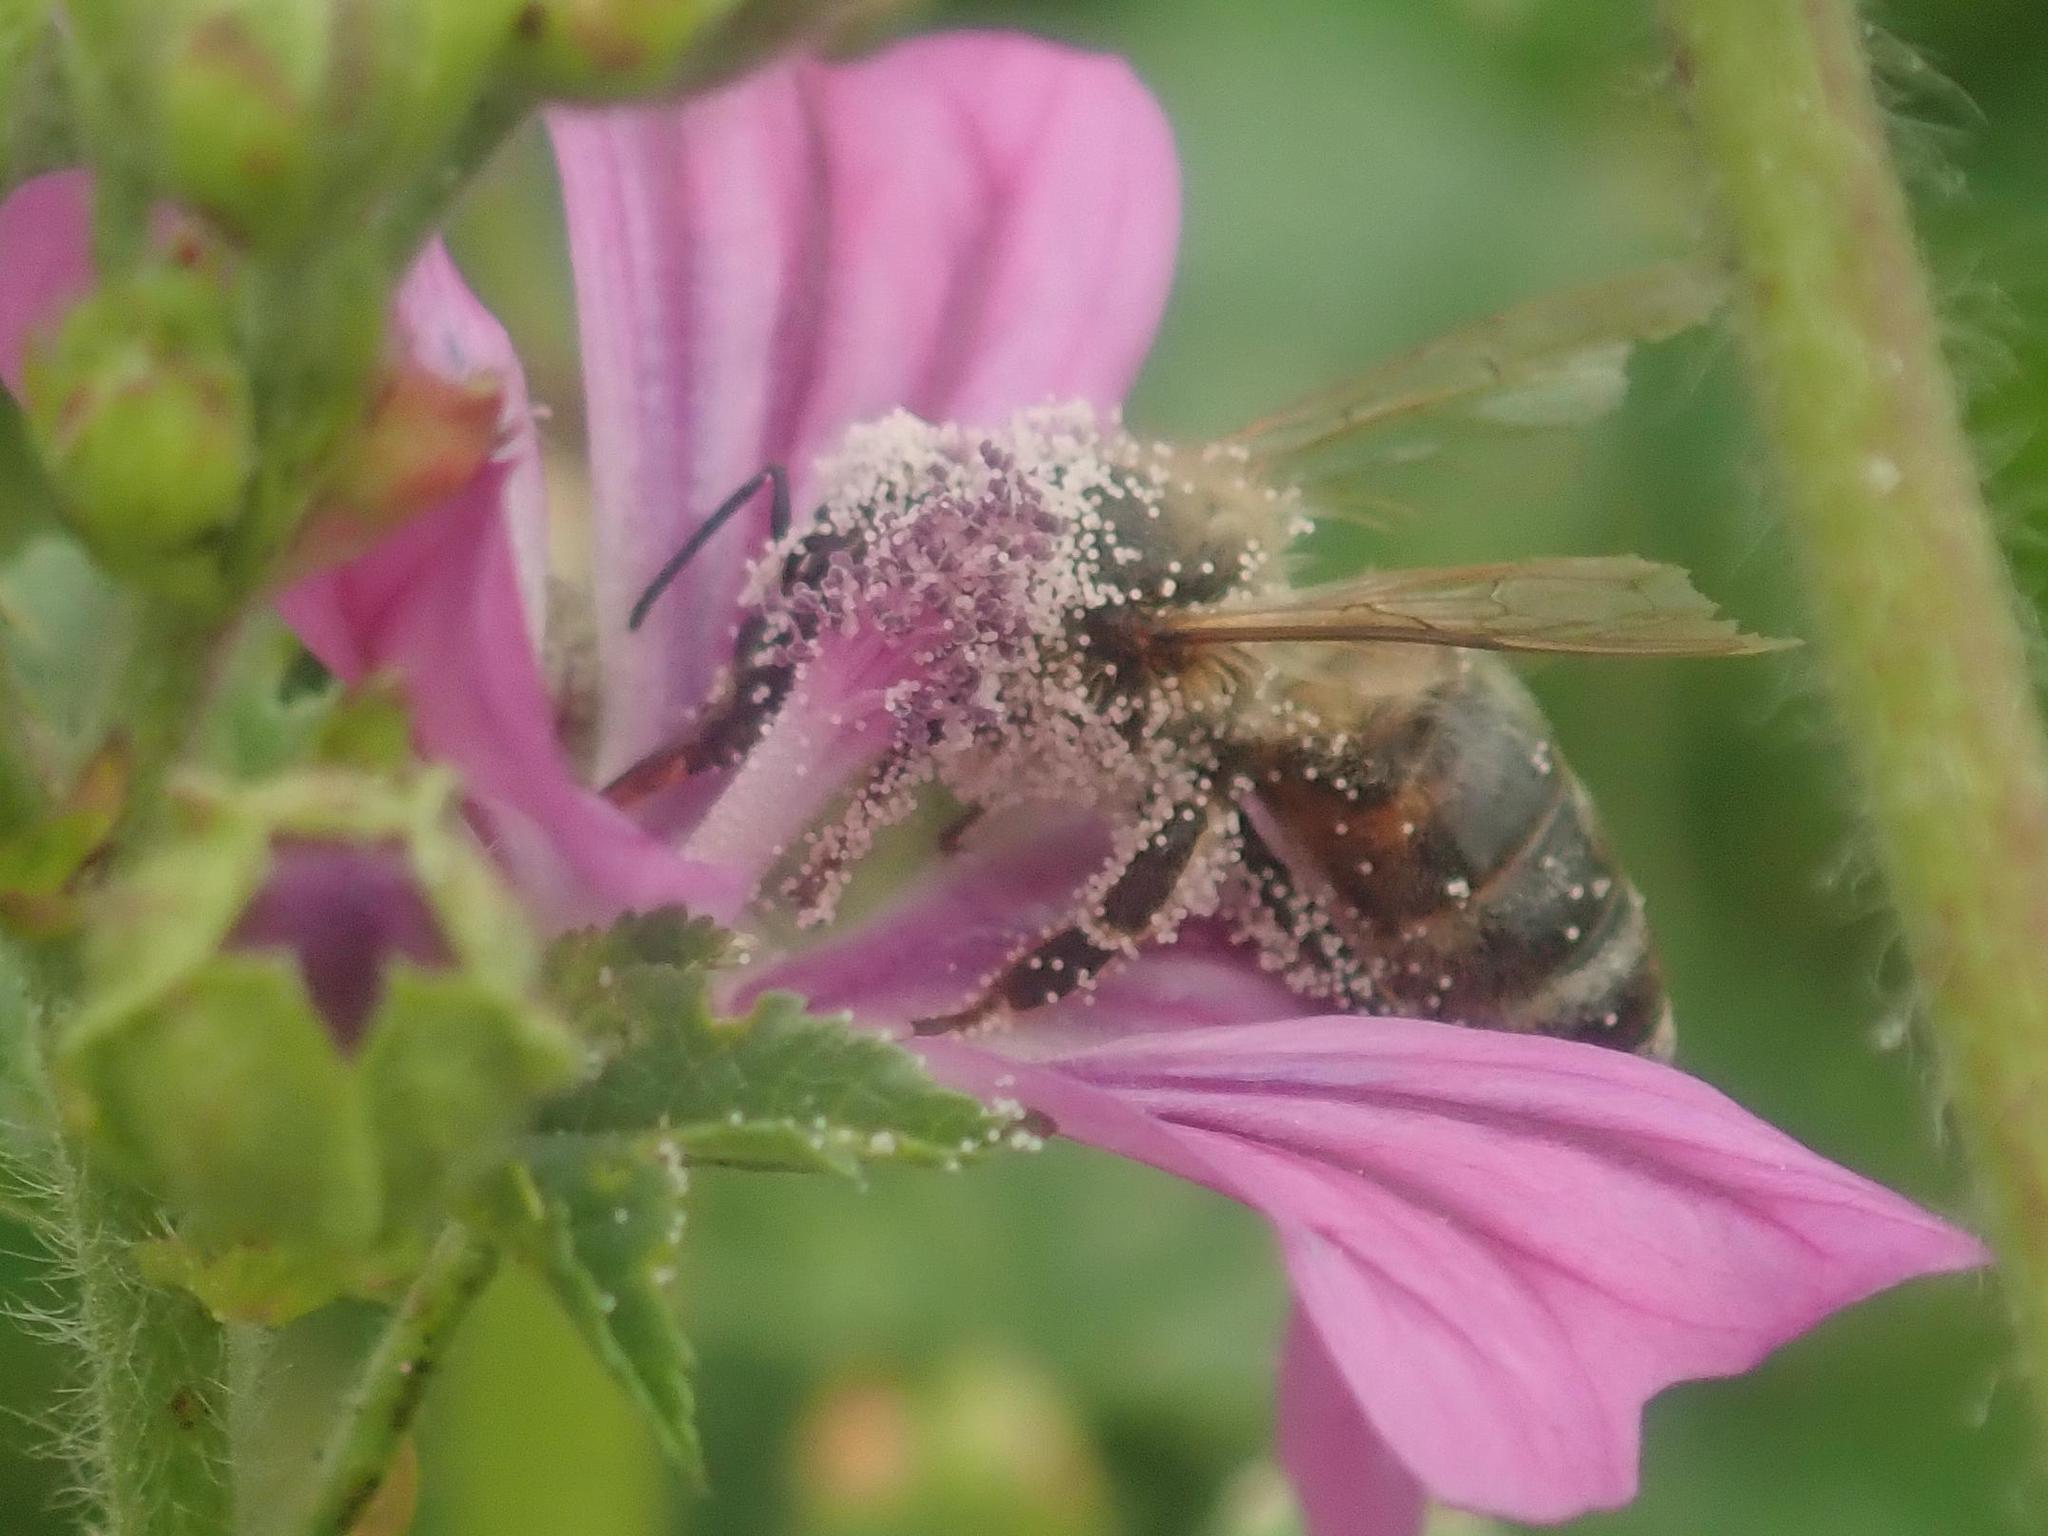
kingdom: Animalia
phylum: Arthropoda
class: Insecta
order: Hymenoptera
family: Apidae
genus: Apis
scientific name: Apis mellifera
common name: Honey bee
